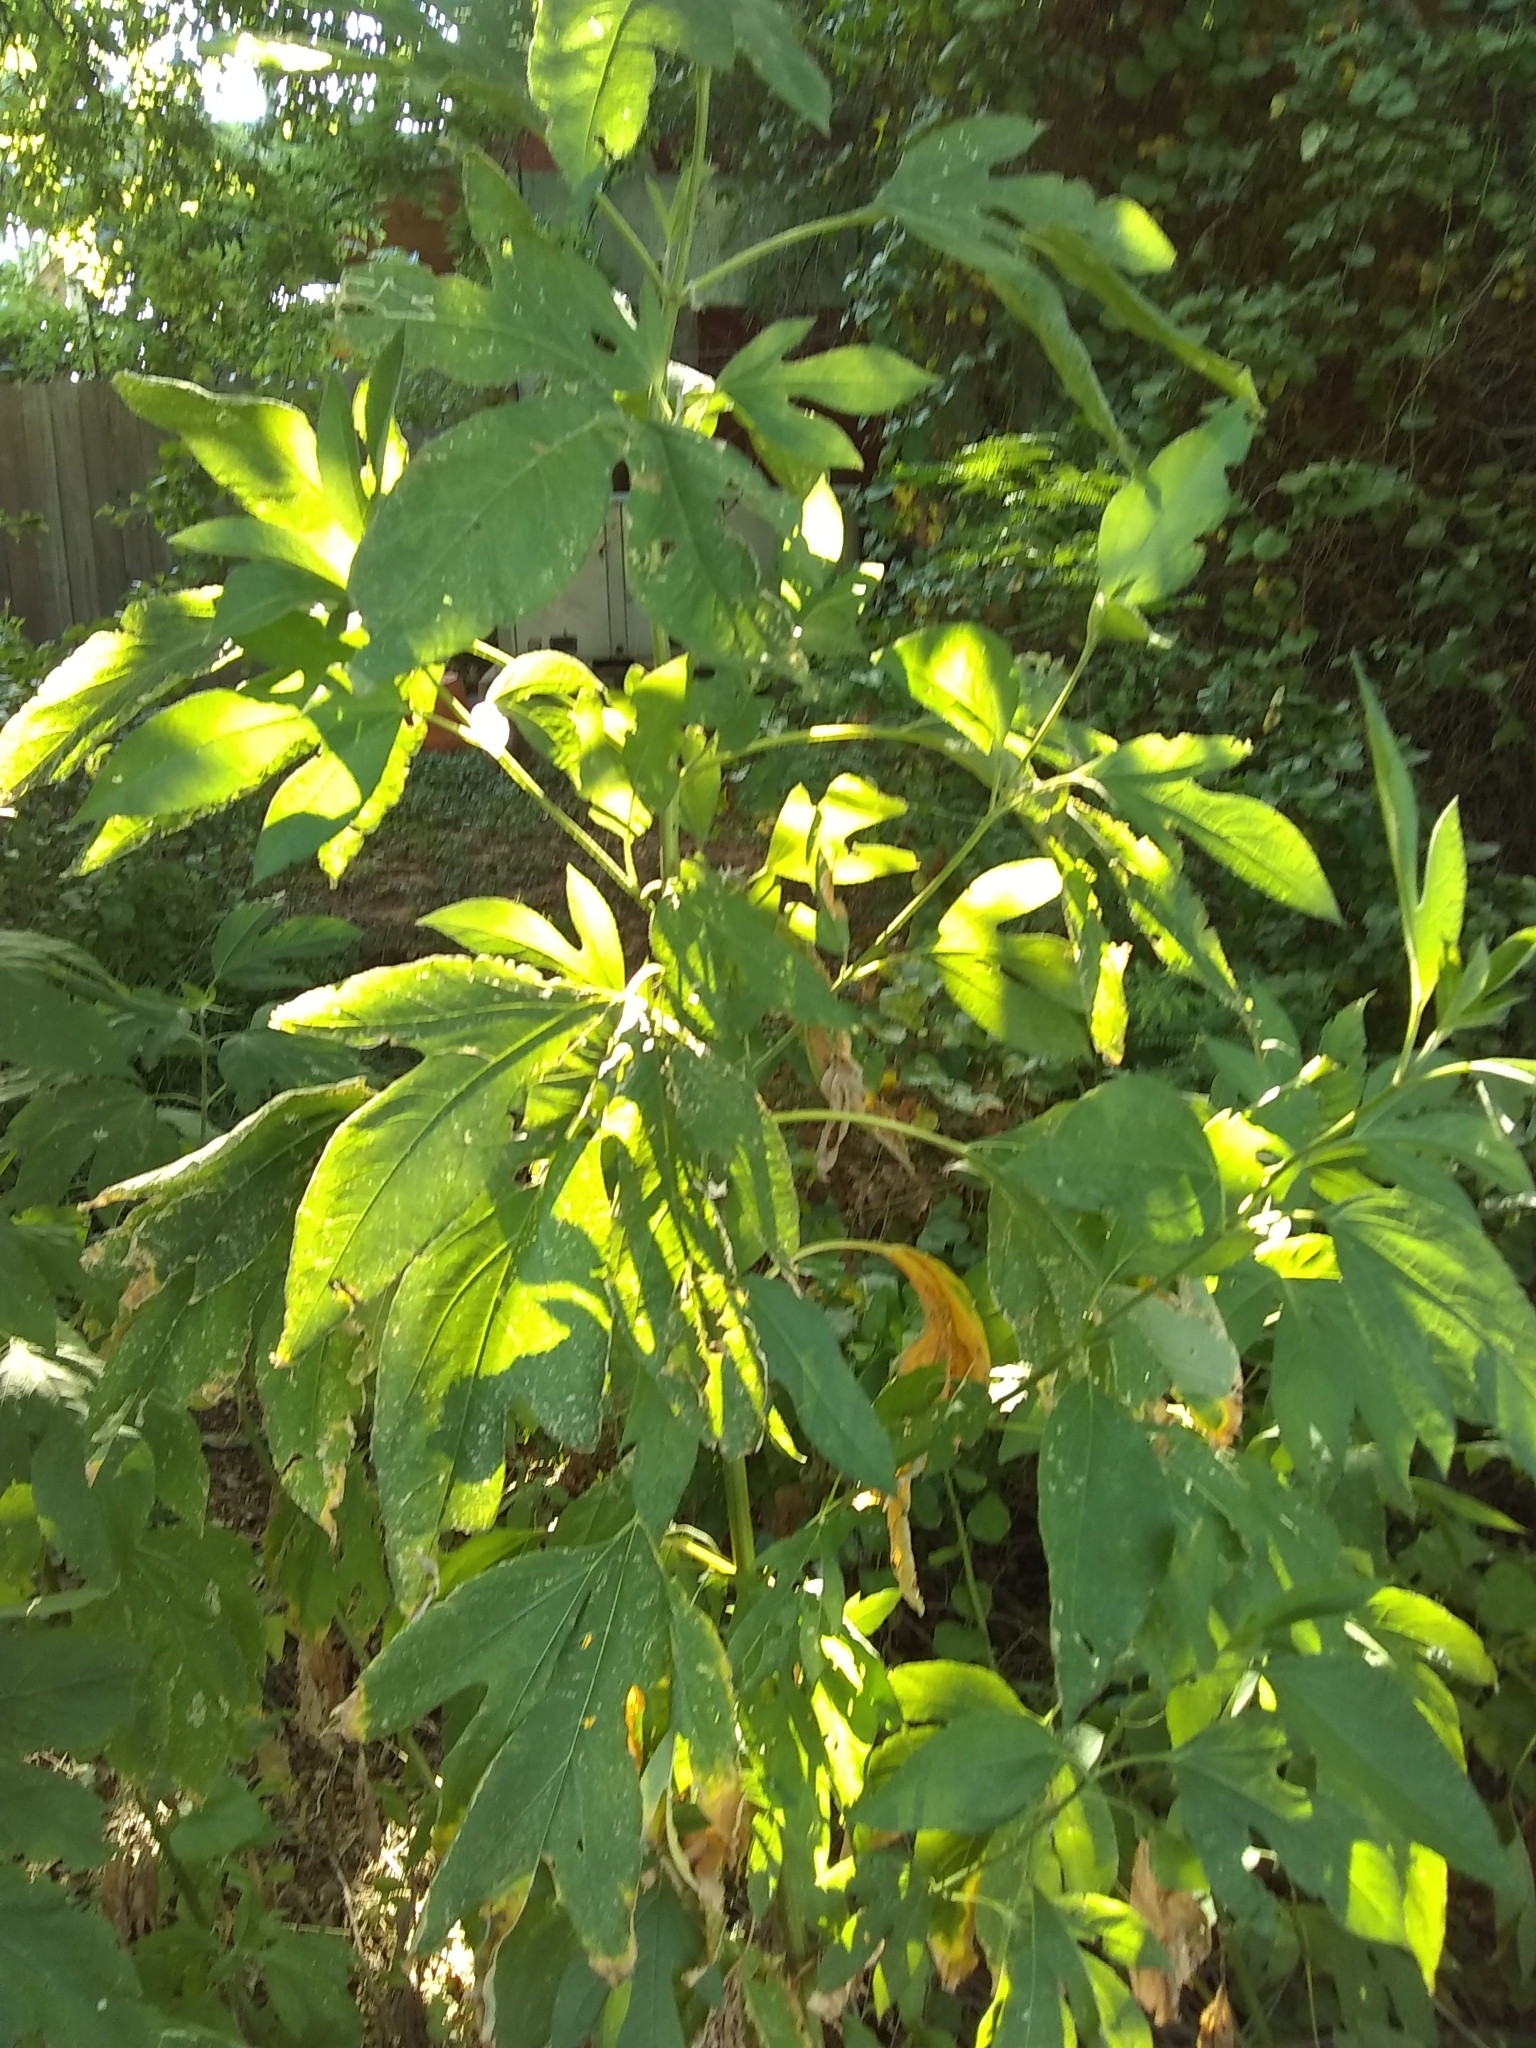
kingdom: Plantae
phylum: Tracheophyta
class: Magnoliopsida
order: Asterales
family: Asteraceae
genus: Ambrosia
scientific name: Ambrosia trifida
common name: Giant ragweed
